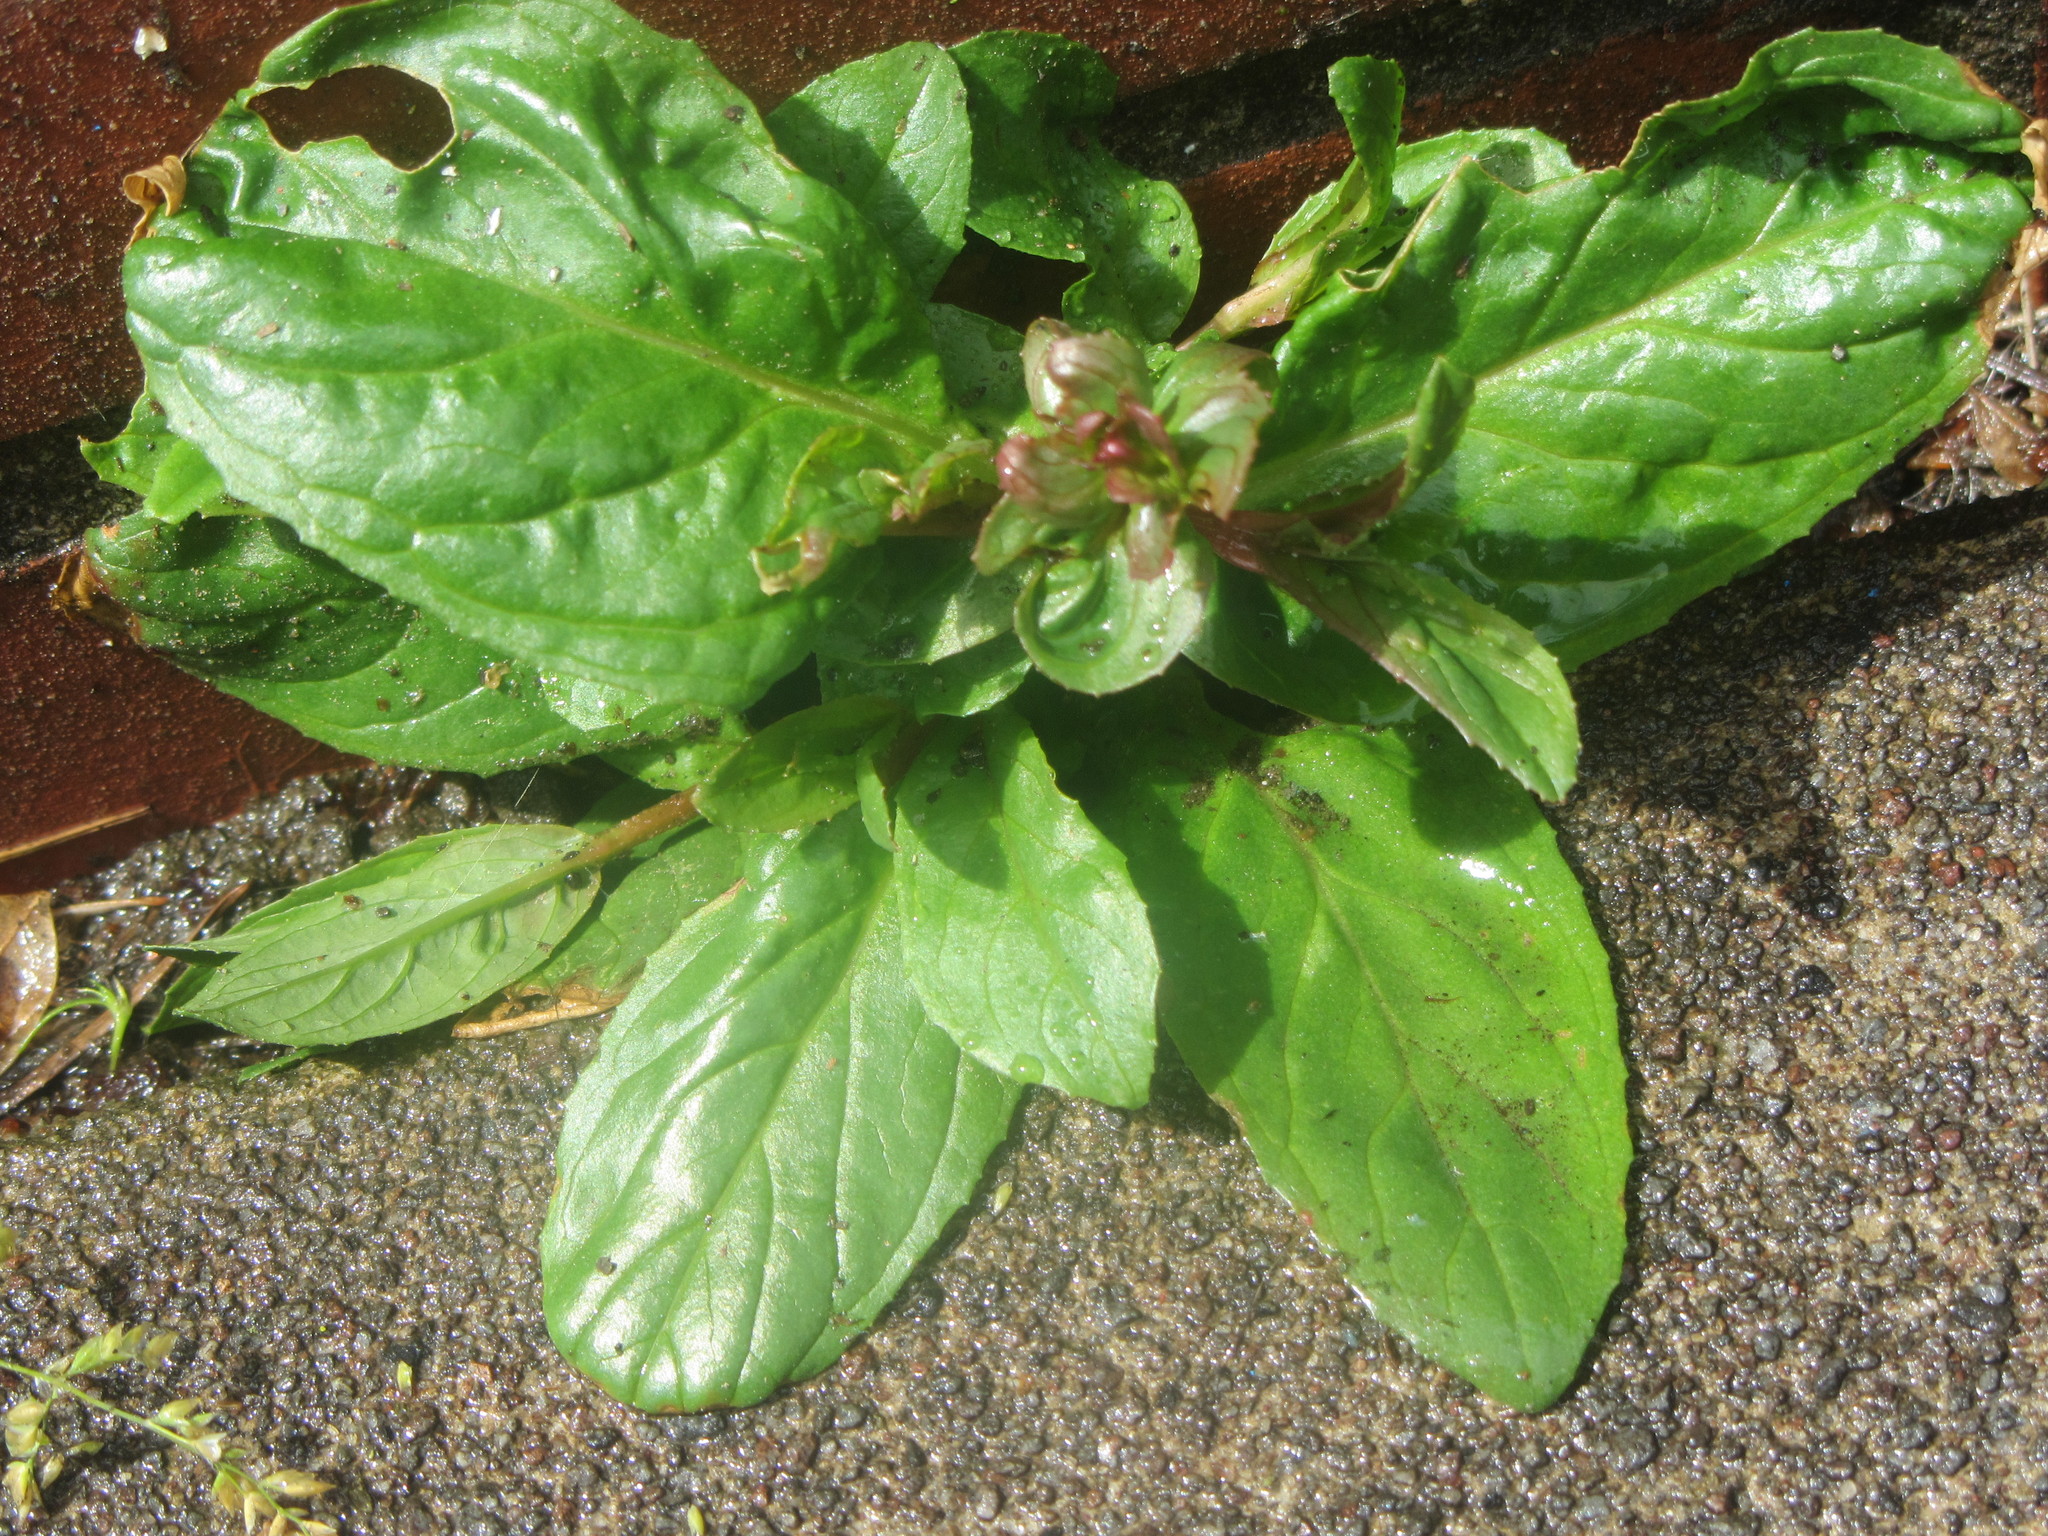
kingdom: Plantae
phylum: Tracheophyta
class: Magnoliopsida
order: Lamiales
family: Plantaginaceae
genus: Veronica
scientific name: Veronica americana
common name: American brooklime
